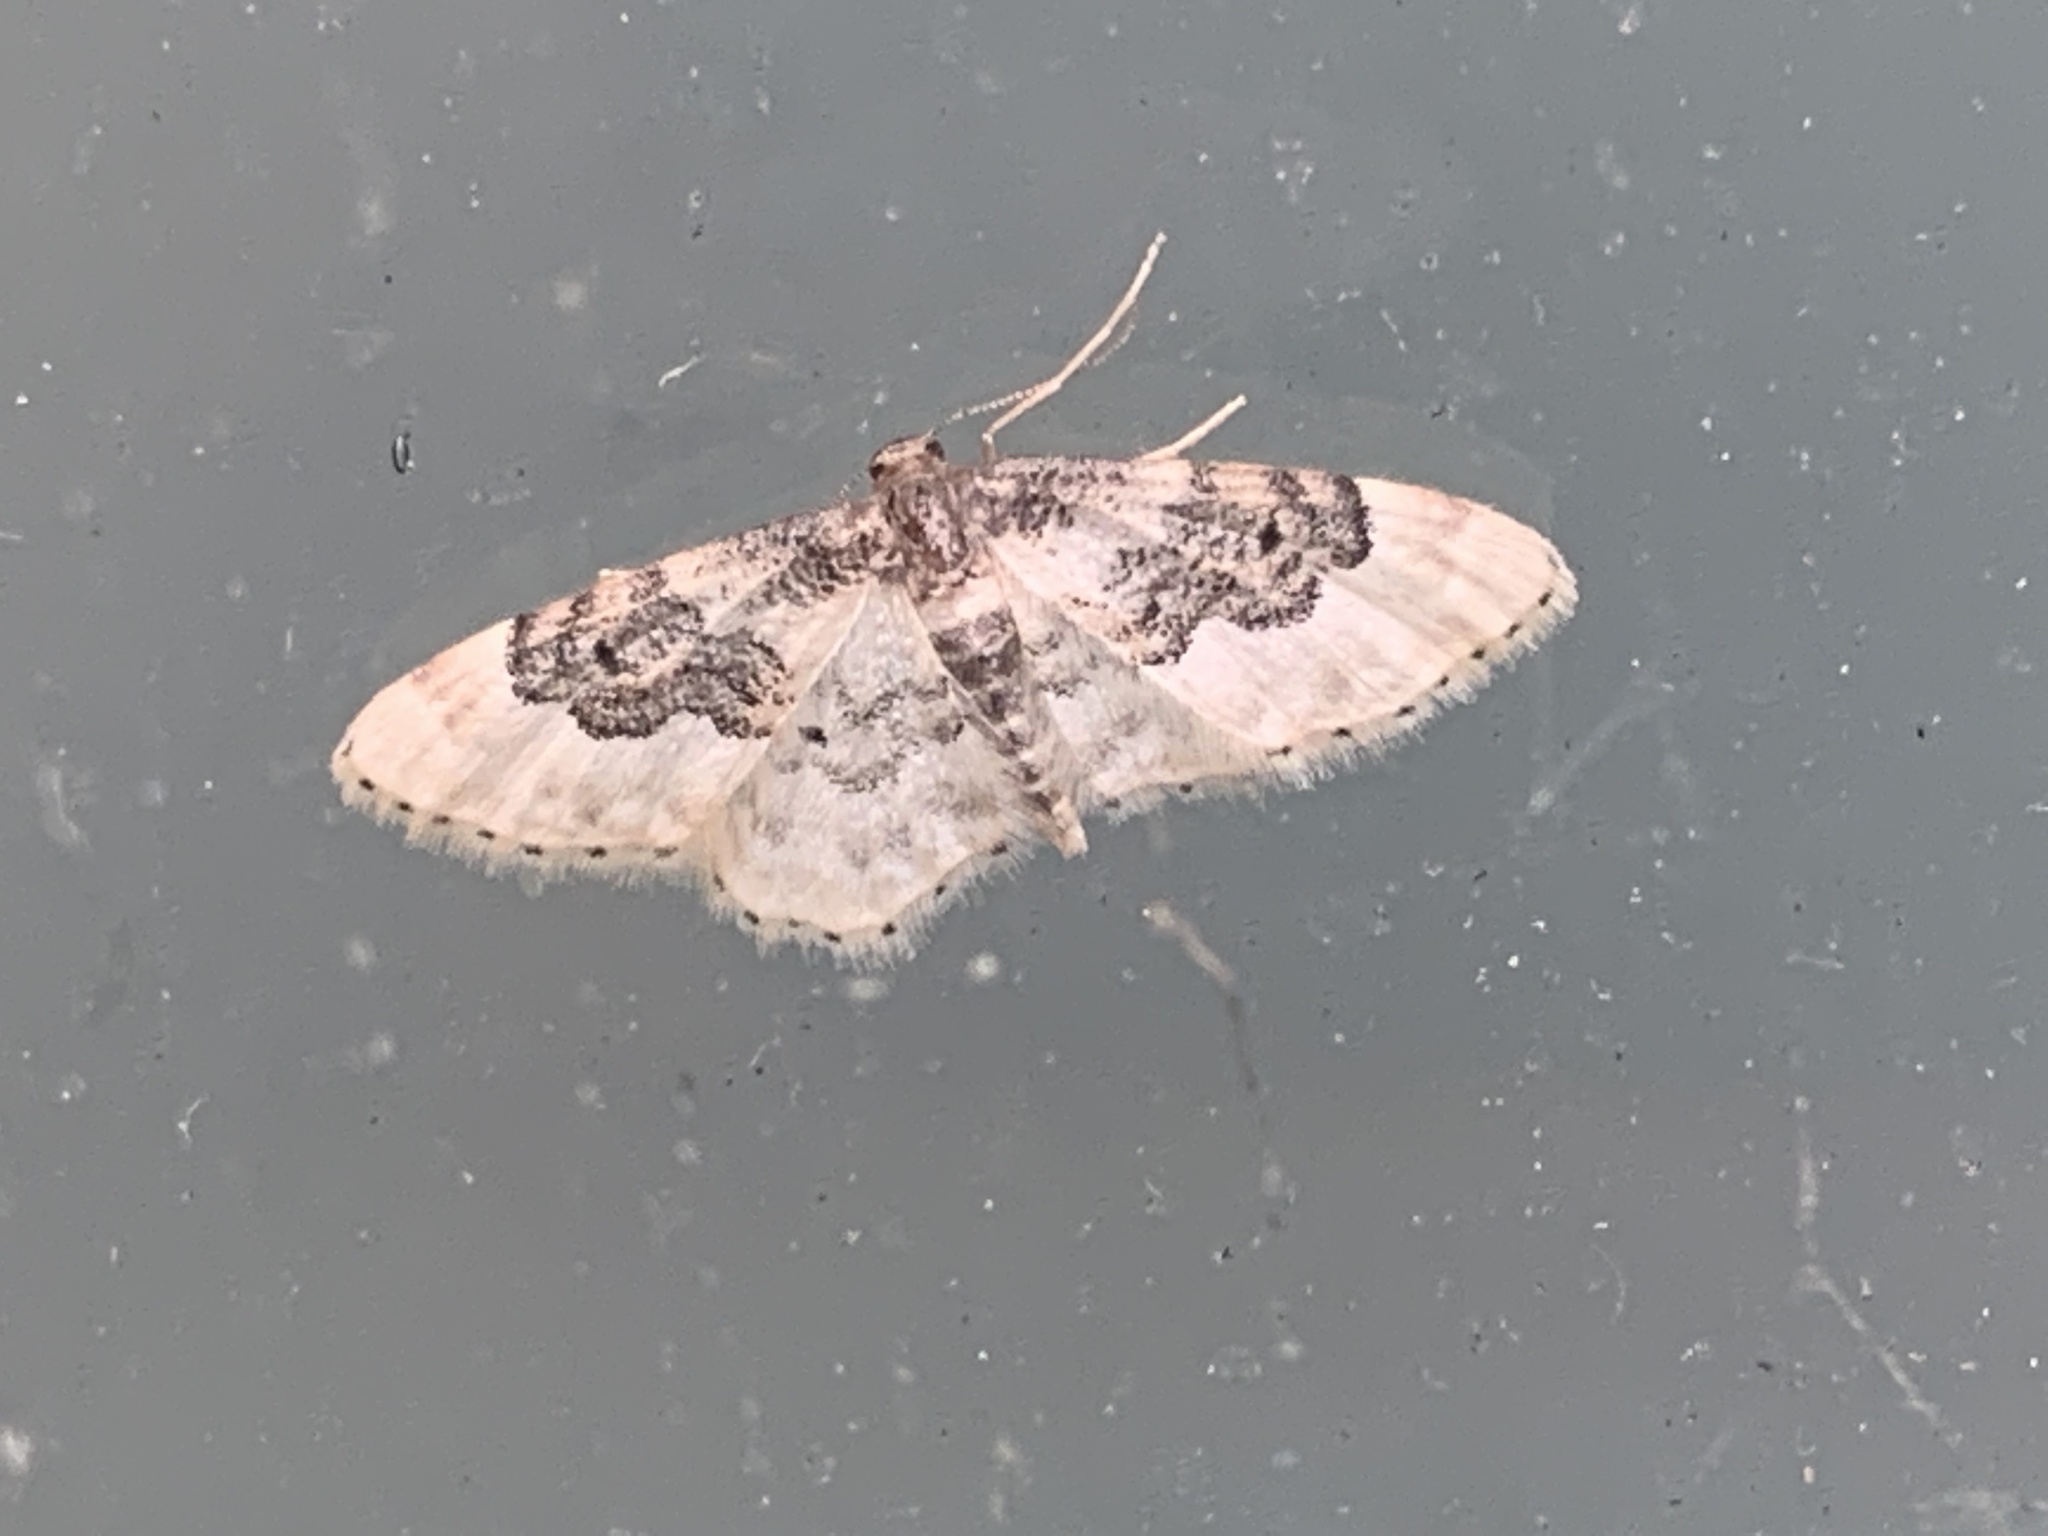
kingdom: Animalia
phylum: Arthropoda
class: Insecta
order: Lepidoptera
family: Geometridae
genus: Idaea
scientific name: Idaea rusticata
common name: Least carpet
